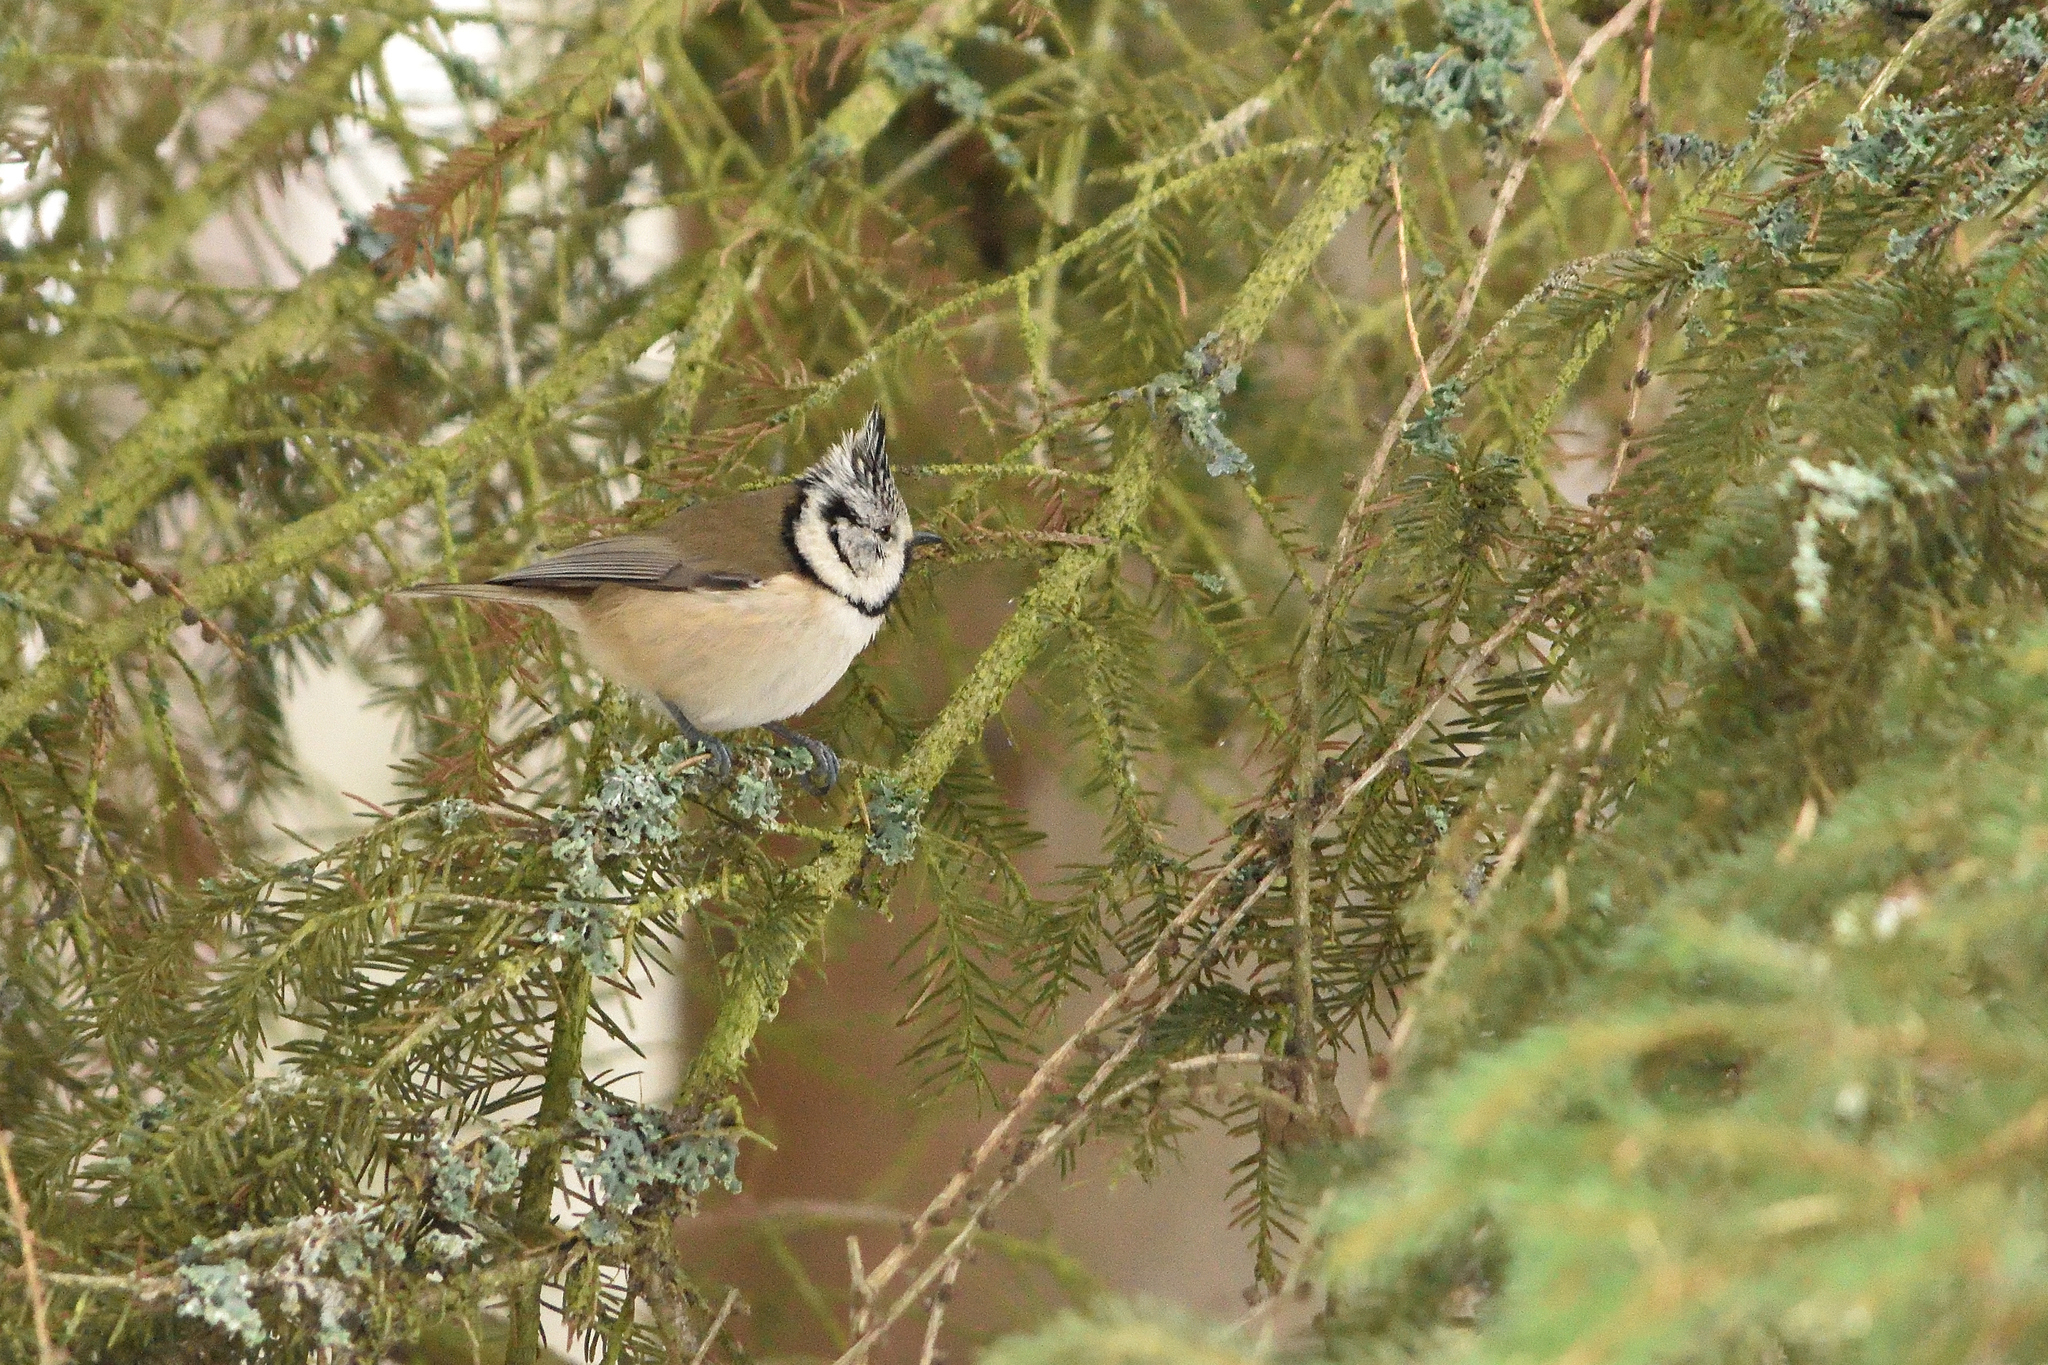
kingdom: Animalia
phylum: Chordata
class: Aves
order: Passeriformes
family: Paridae
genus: Lophophanes
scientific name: Lophophanes cristatus
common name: European crested tit
